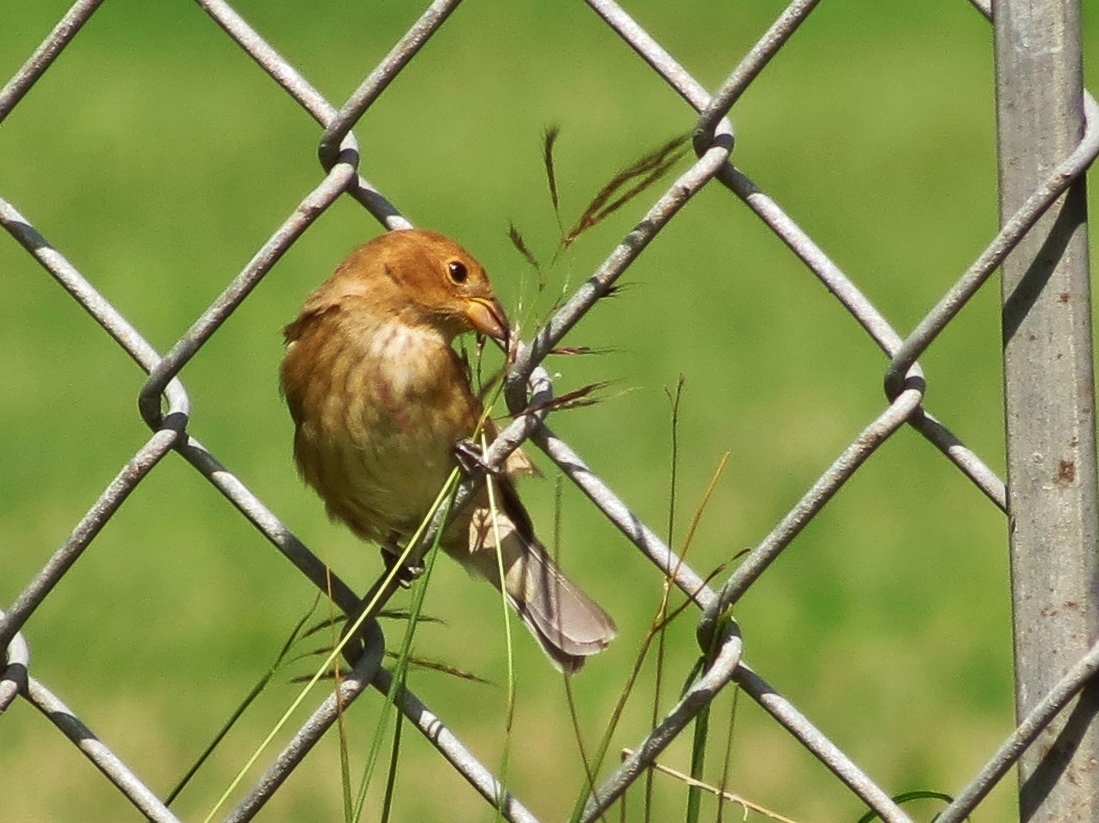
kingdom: Animalia
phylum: Chordata
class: Aves
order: Passeriformes
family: Cardinalidae
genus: Passerina
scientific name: Passerina cyanea
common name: Indigo bunting
